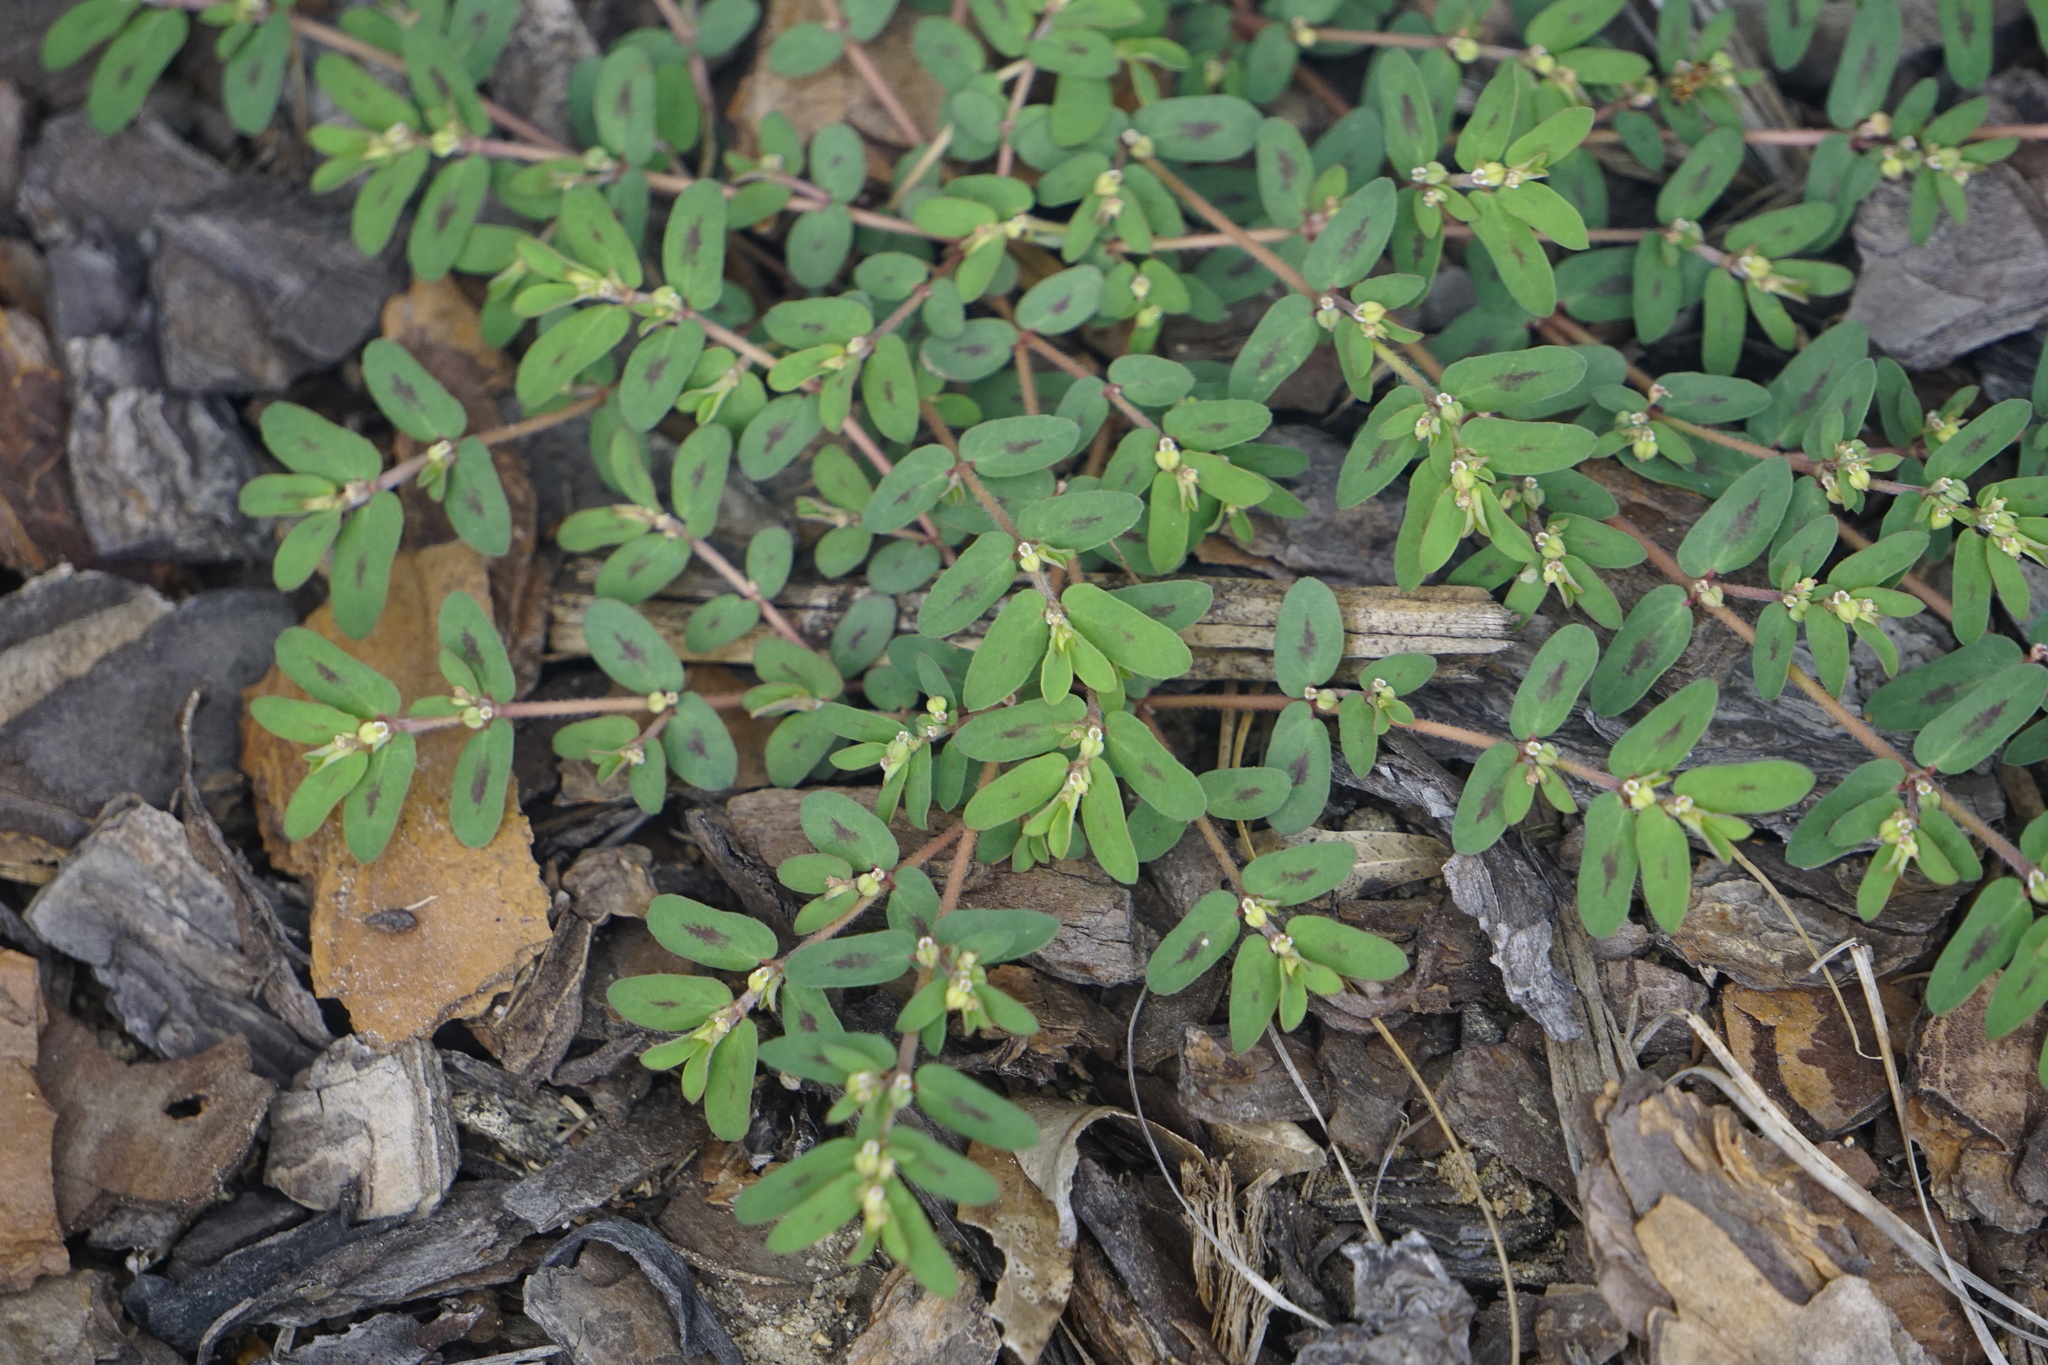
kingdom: Plantae
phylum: Tracheophyta
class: Magnoliopsida
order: Malpighiales
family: Euphorbiaceae
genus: Euphorbia
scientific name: Euphorbia maculata
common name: Spotted spurge
